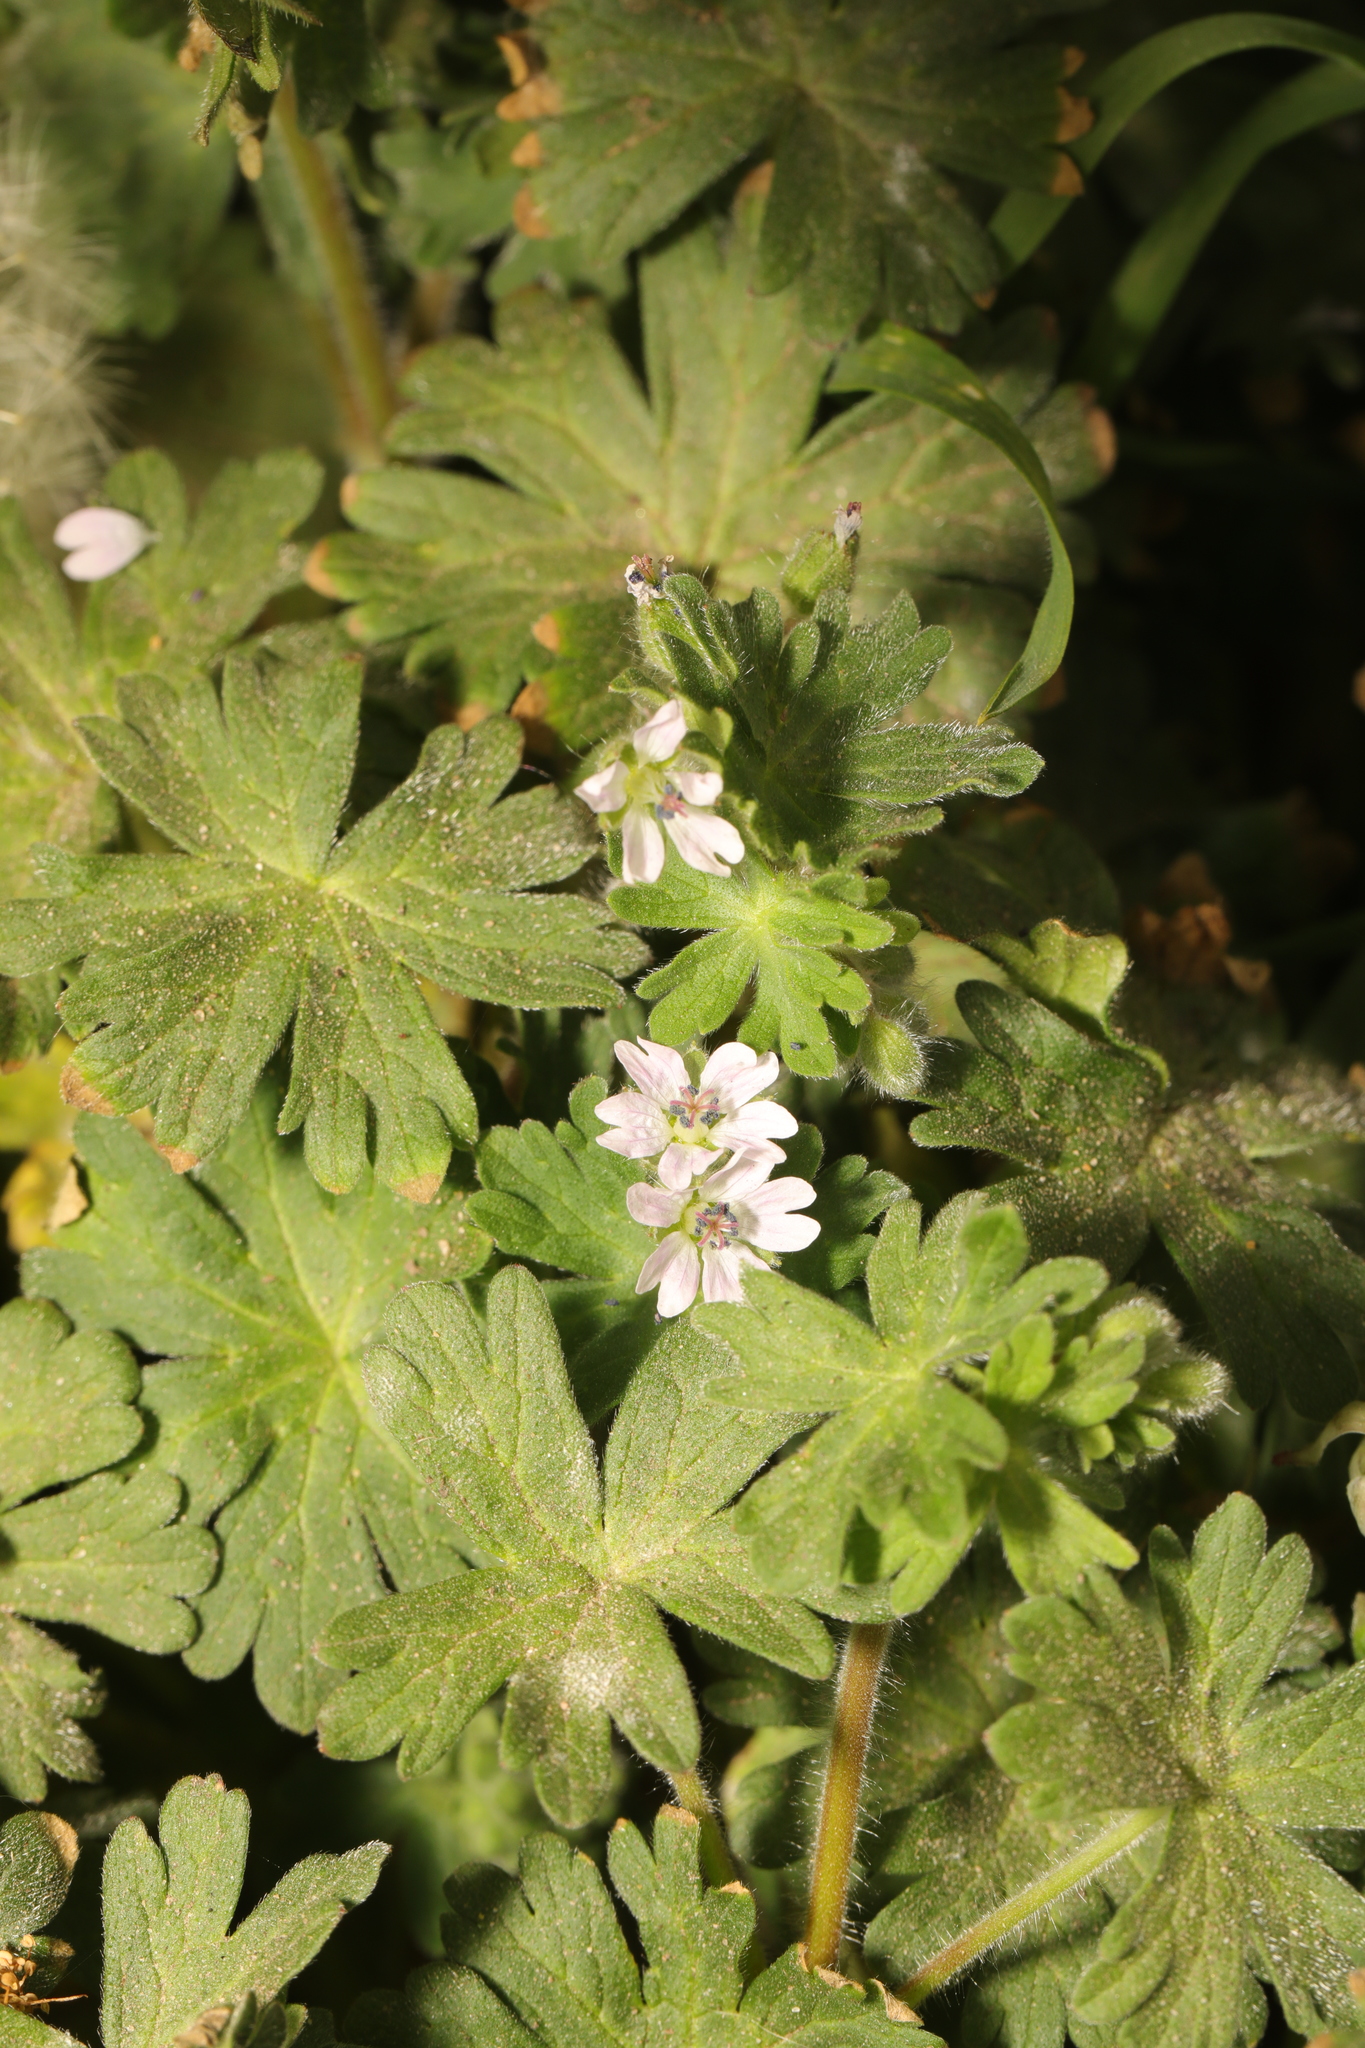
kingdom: Plantae
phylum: Tracheophyta
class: Magnoliopsida
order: Geraniales
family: Geraniaceae
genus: Geranium
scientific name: Geranium molle
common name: Dove's-foot crane's-bill
